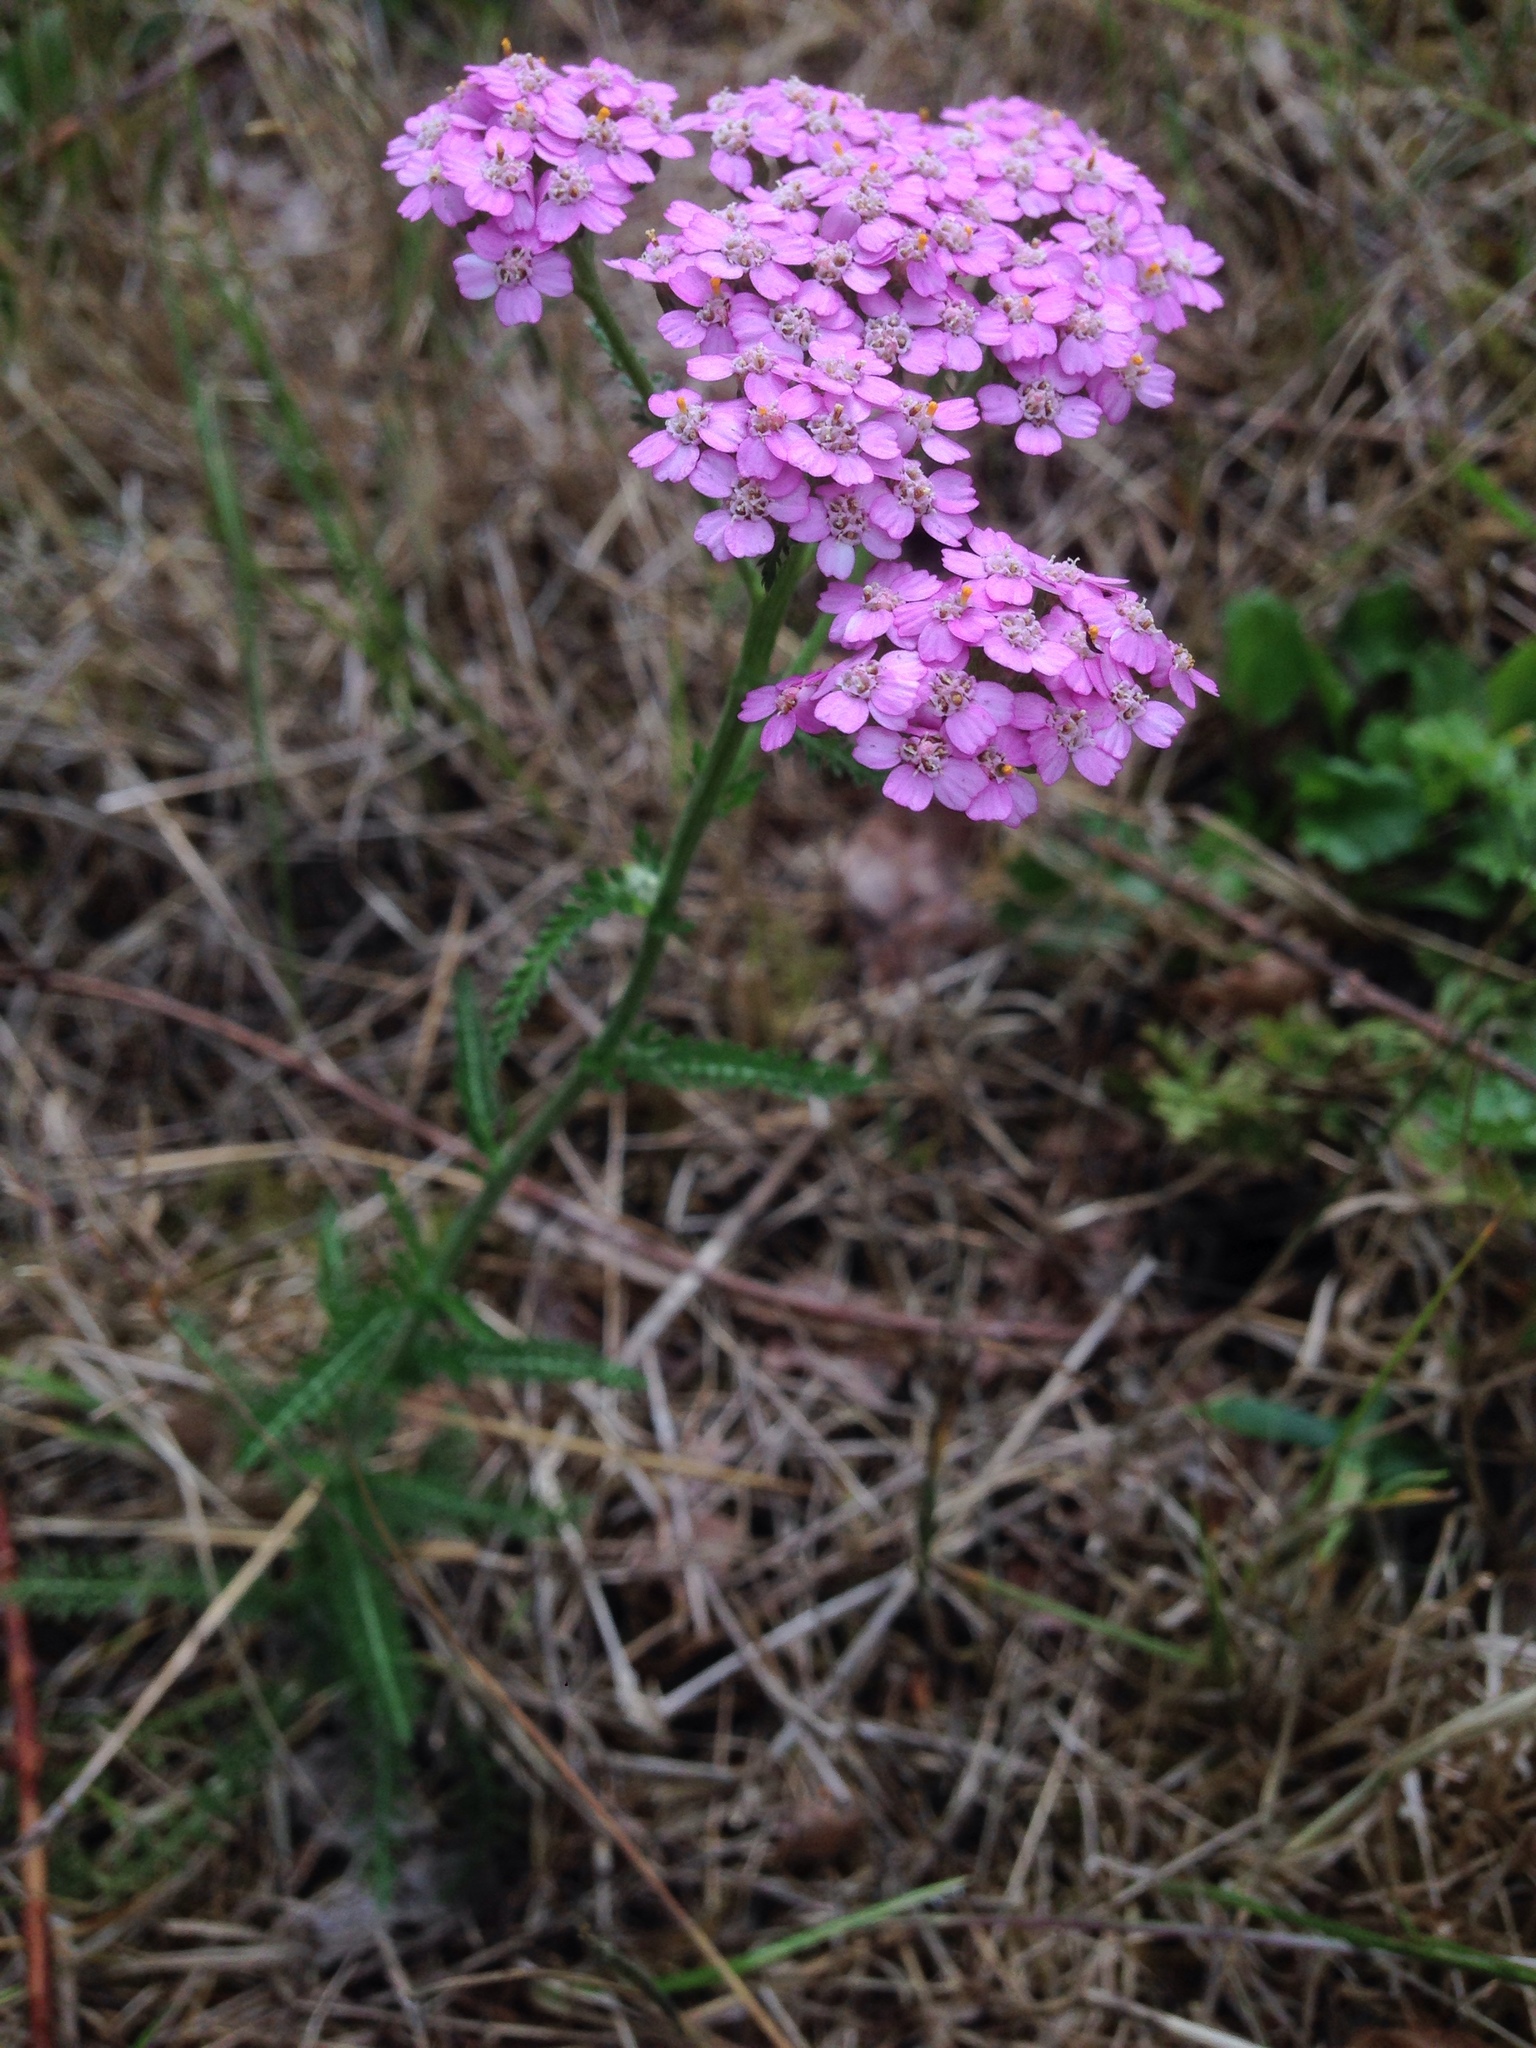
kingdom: Plantae
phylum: Tracheophyta
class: Magnoliopsida
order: Asterales
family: Asteraceae
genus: Achillea
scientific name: Achillea millefolium
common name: Yarrow
